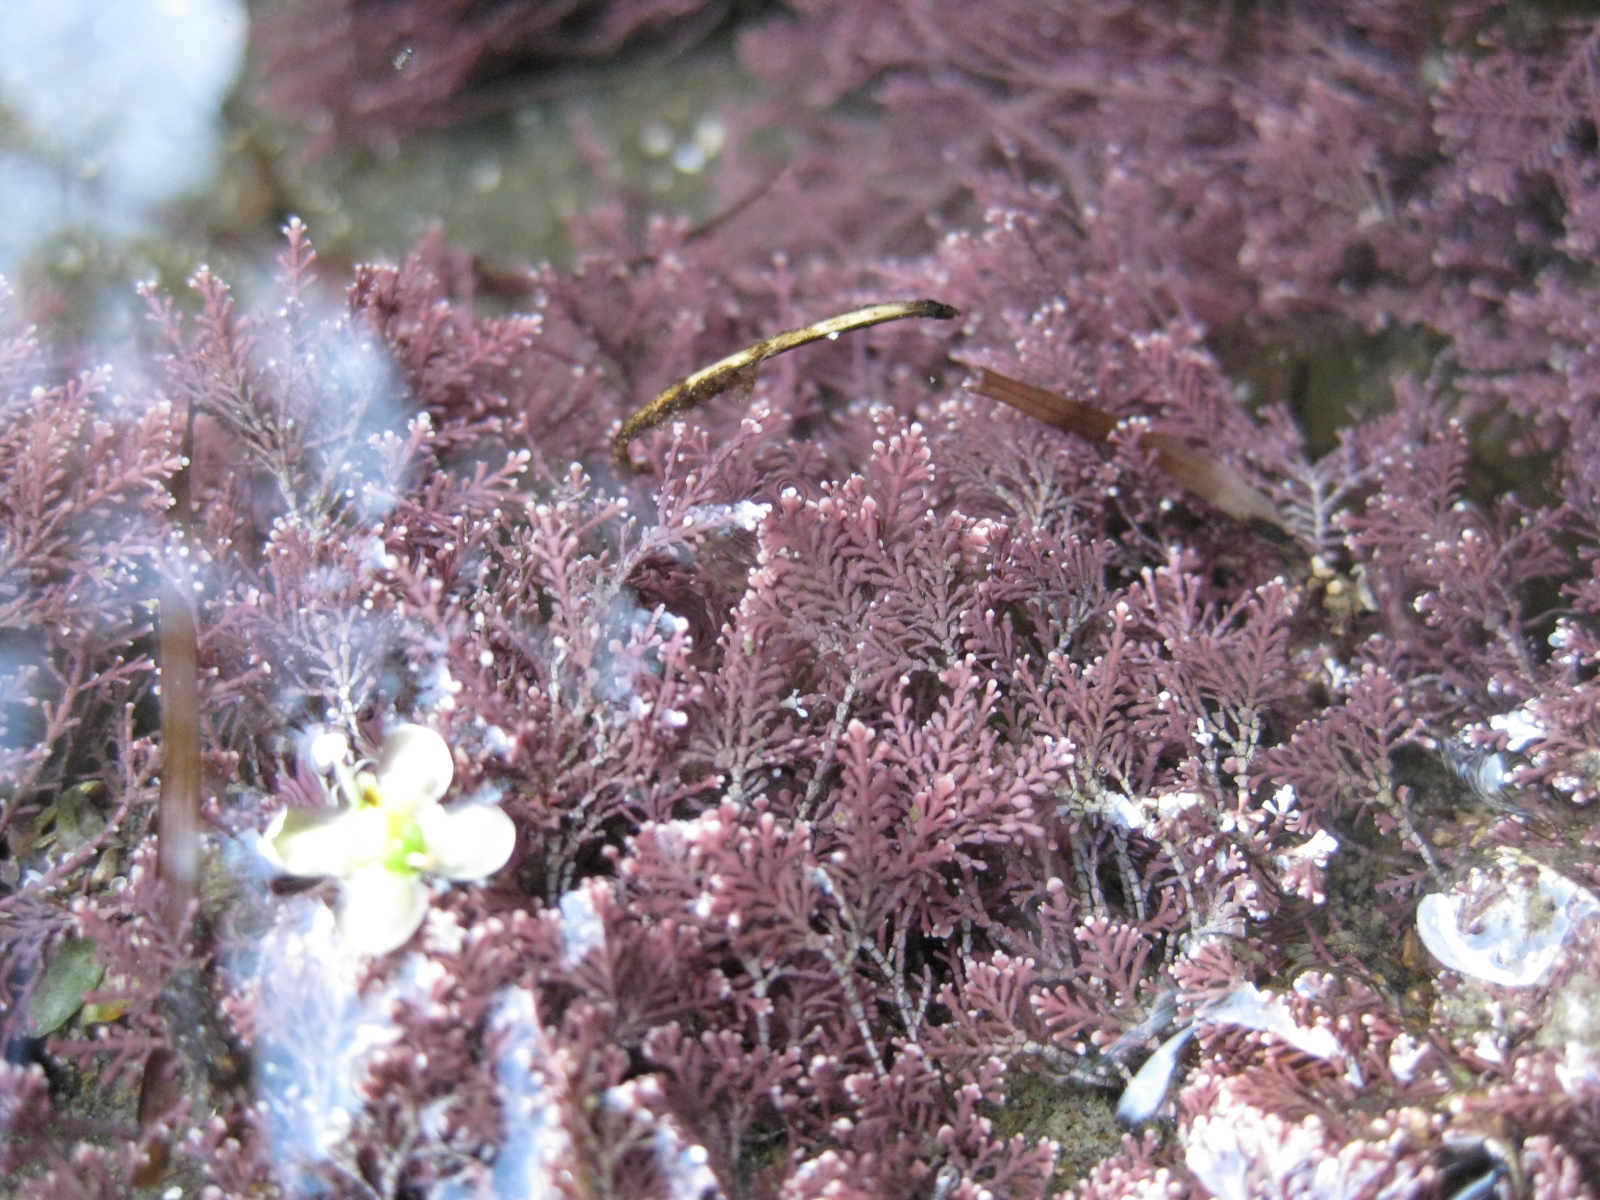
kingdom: Plantae
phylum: Rhodophyta
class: Florideophyceae
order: Corallinales
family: Corallinaceae
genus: Corallina
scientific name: Corallina officinalis
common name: Coral weed
